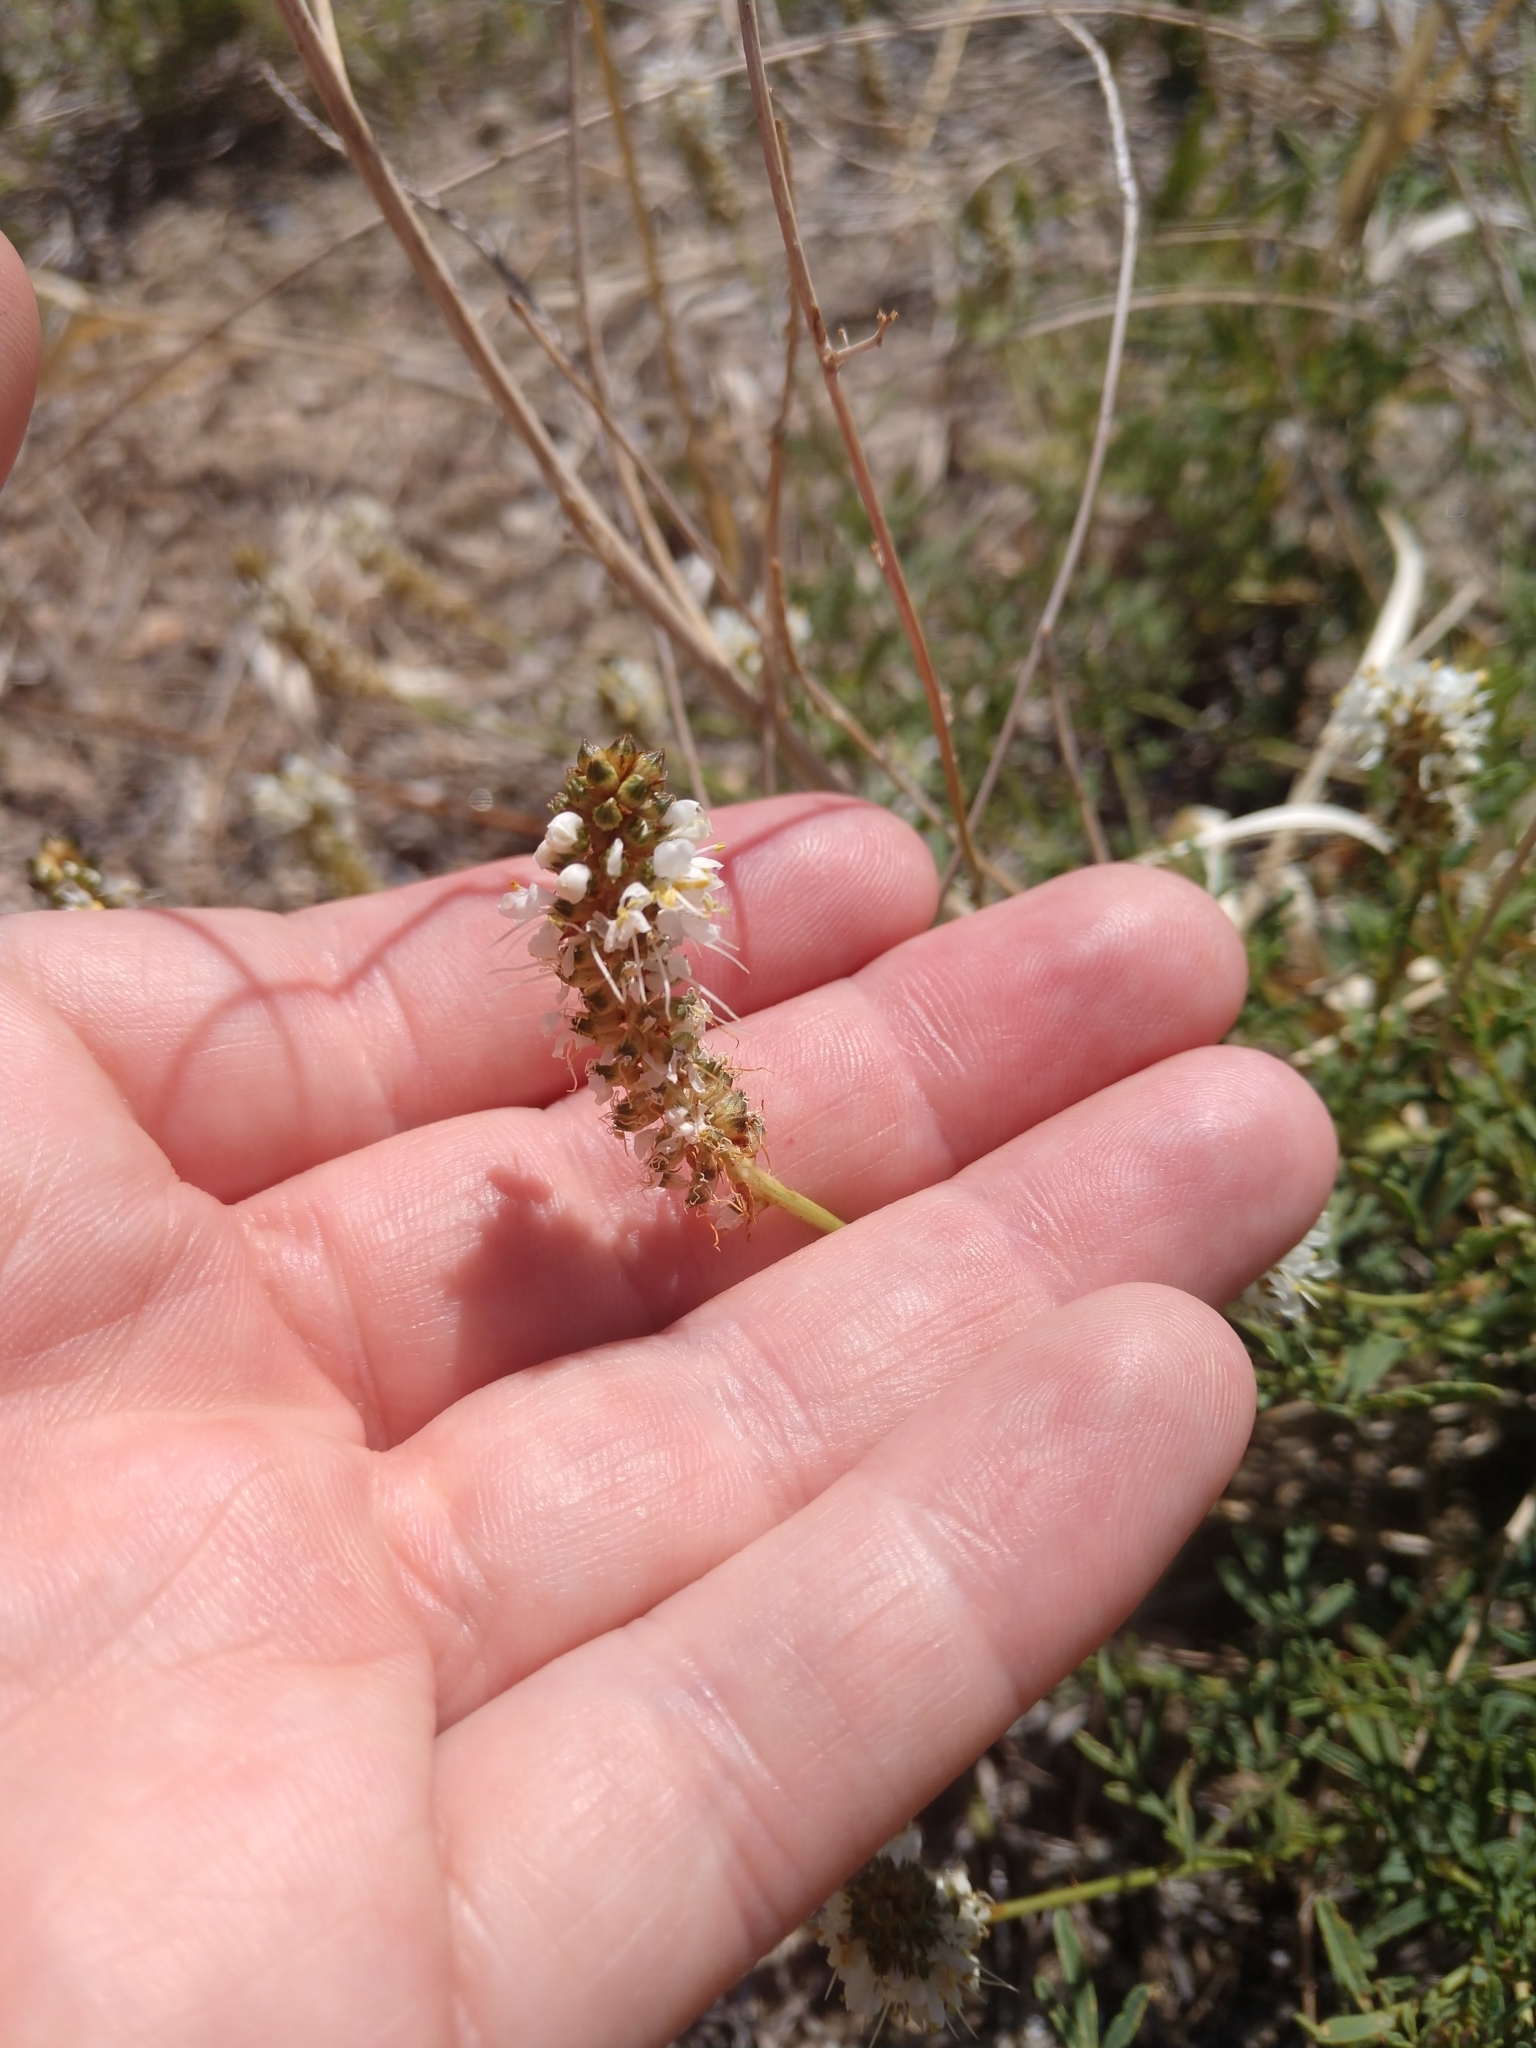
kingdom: Plantae
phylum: Tracheophyta
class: Magnoliopsida
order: Fabales
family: Fabaceae
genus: Dalea
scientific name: Dalea candida
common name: White prairie-clover
